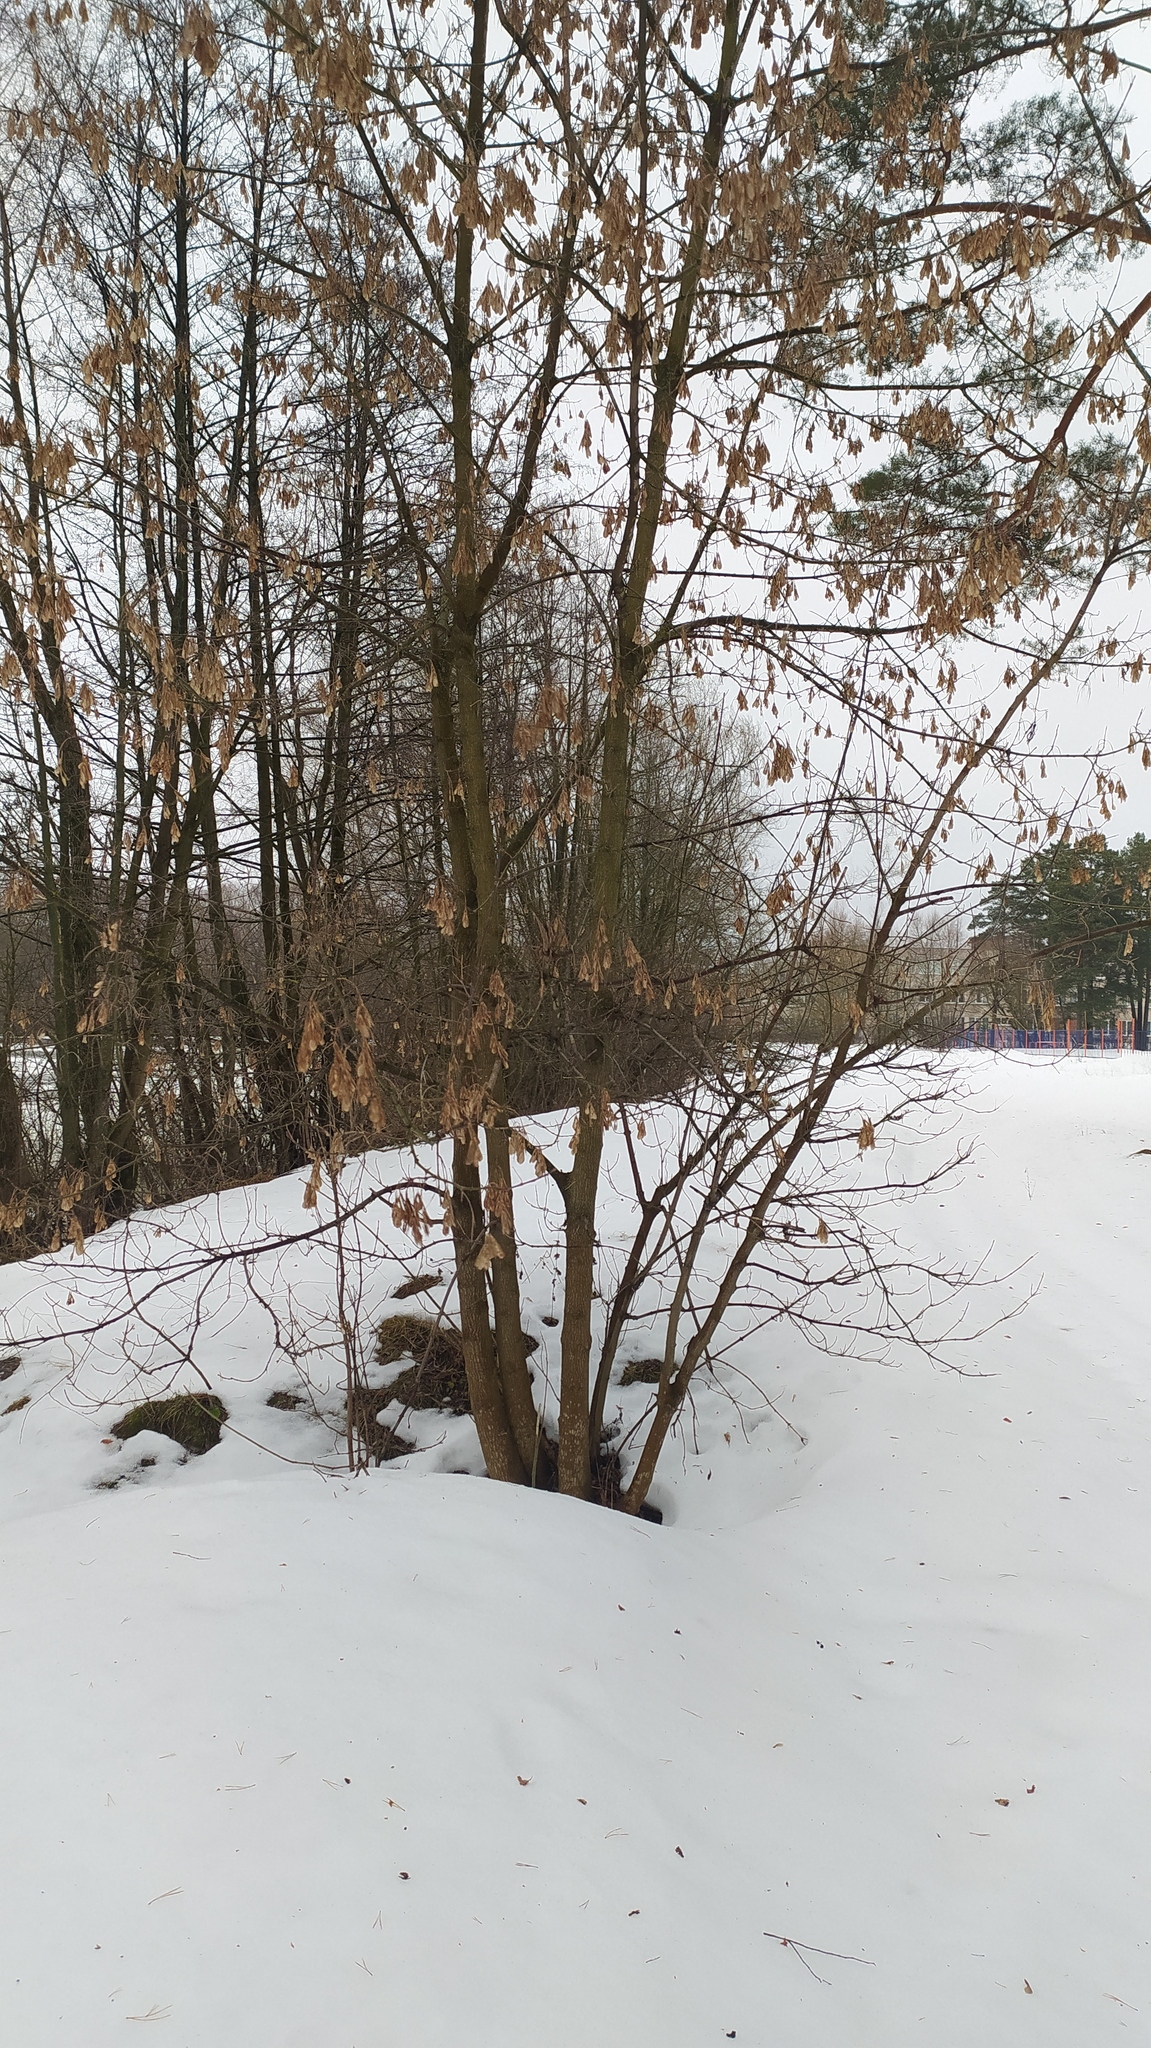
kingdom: Plantae
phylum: Tracheophyta
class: Magnoliopsida
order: Sapindales
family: Sapindaceae
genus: Acer
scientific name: Acer negundo
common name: Ashleaf maple
